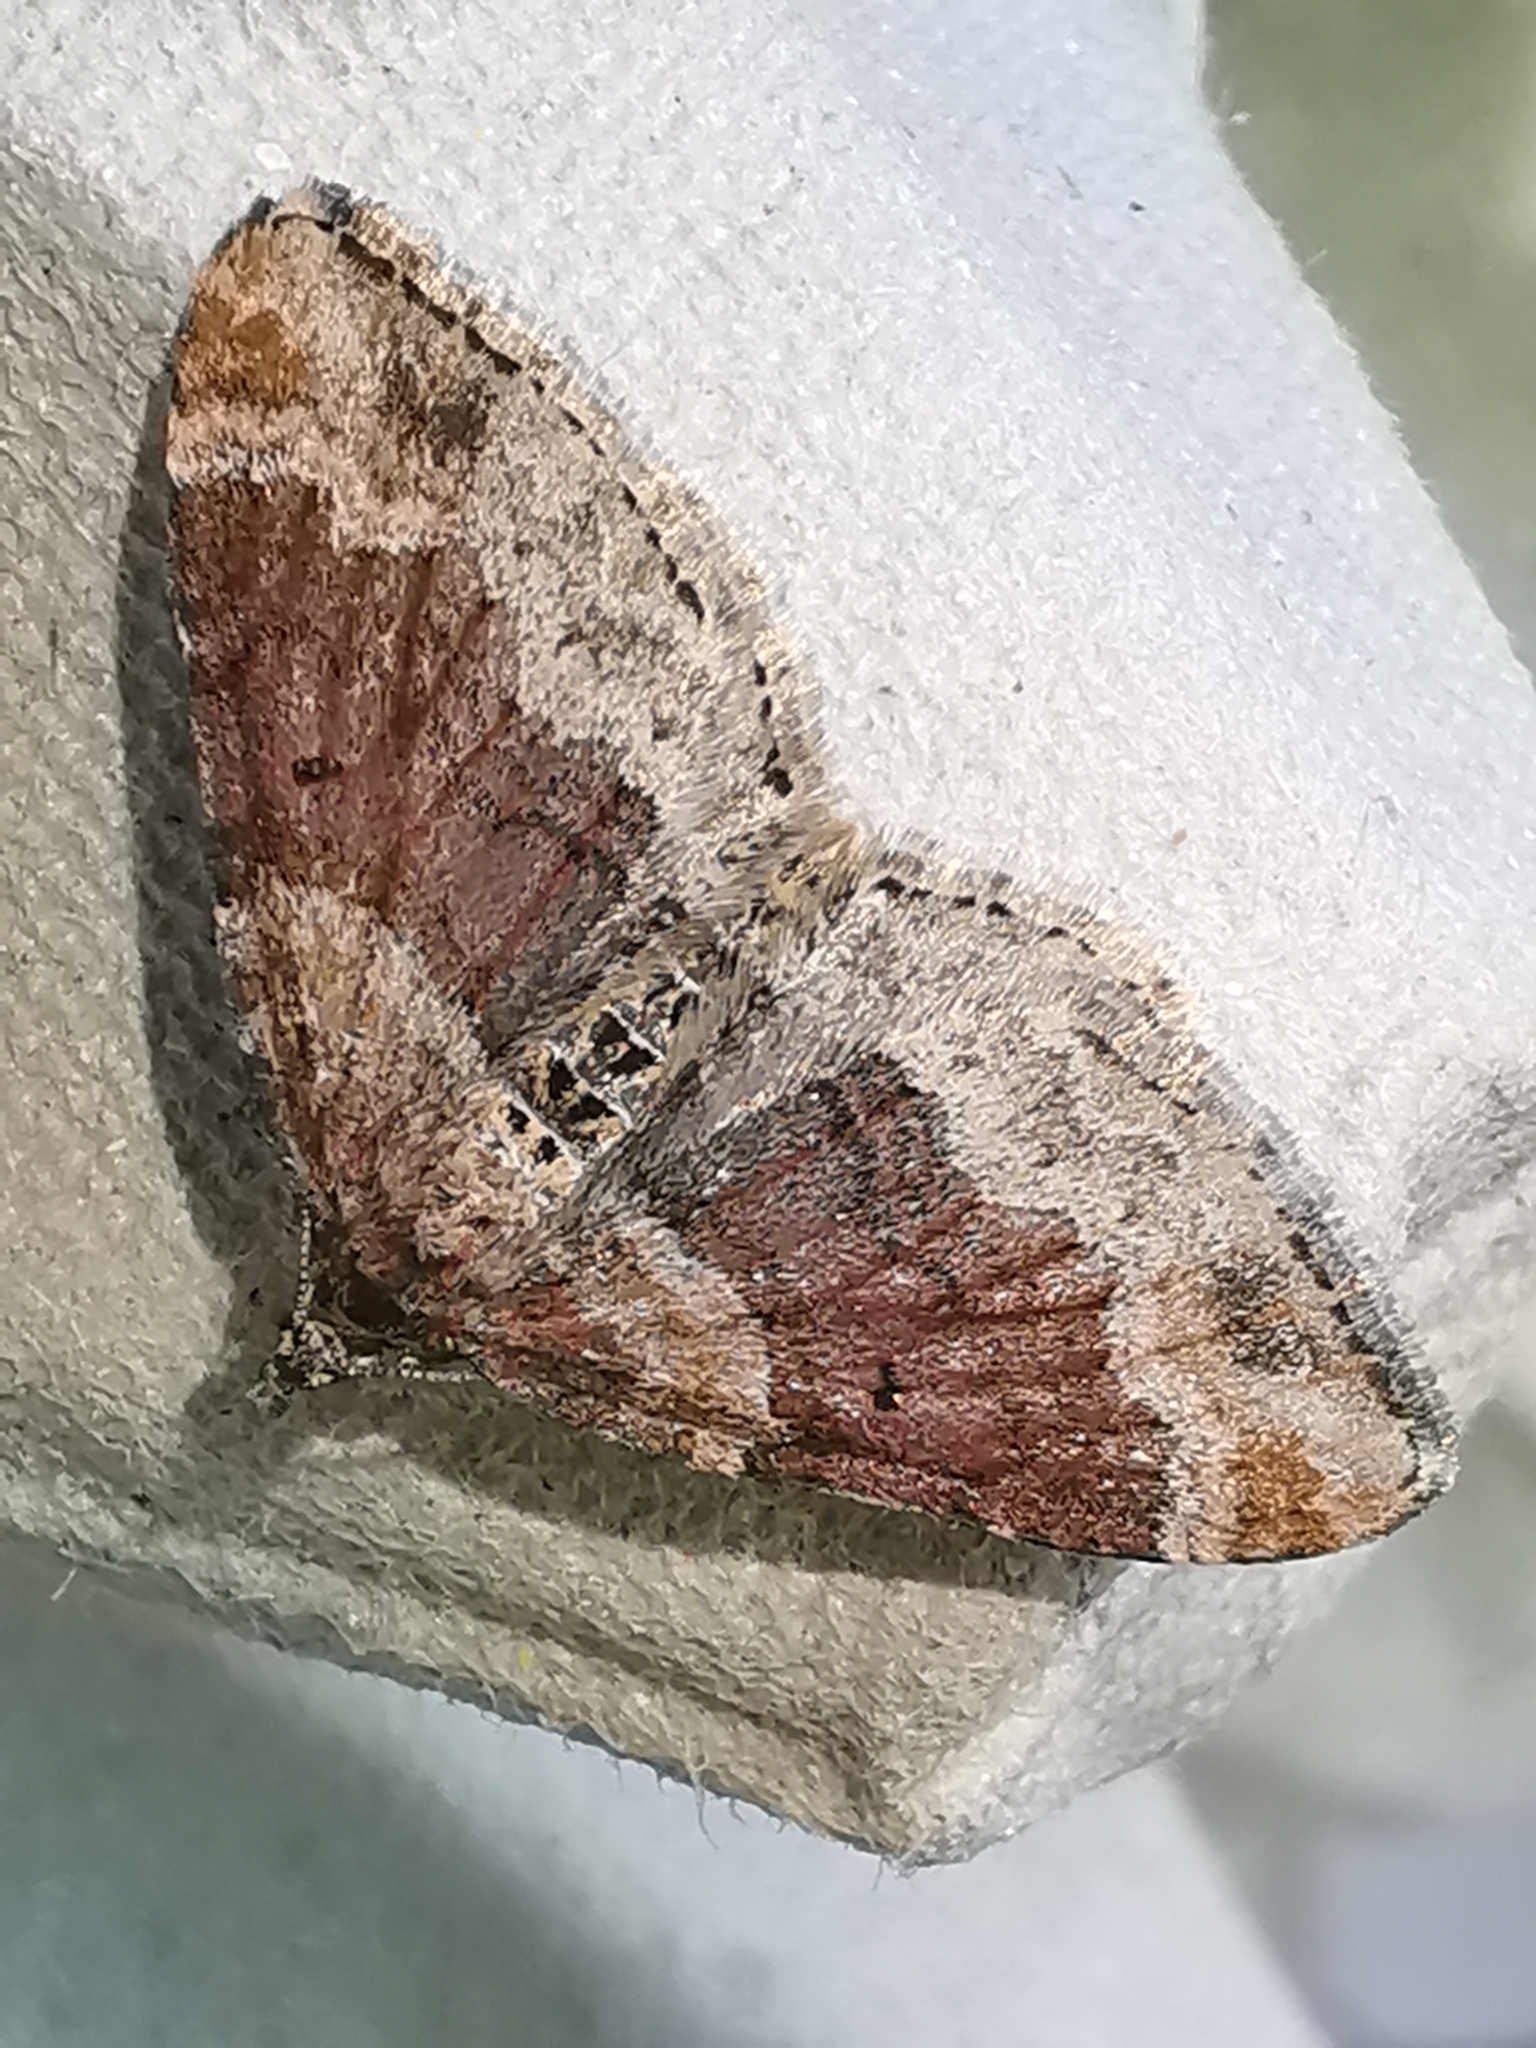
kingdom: Animalia
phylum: Arthropoda
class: Insecta
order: Lepidoptera
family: Geometridae
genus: Xanthorhoe
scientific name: Xanthorhoe spadicearia
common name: Red twin-spot carpet
